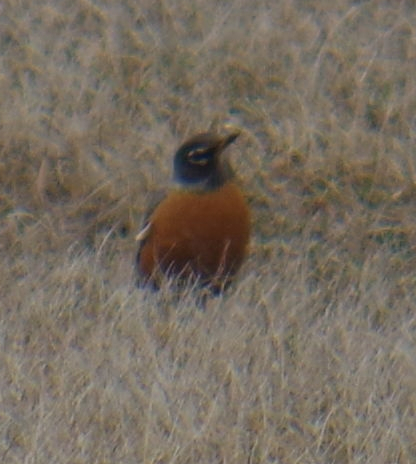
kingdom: Animalia
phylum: Chordata
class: Aves
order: Passeriformes
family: Turdidae
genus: Turdus
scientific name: Turdus migratorius
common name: American robin
